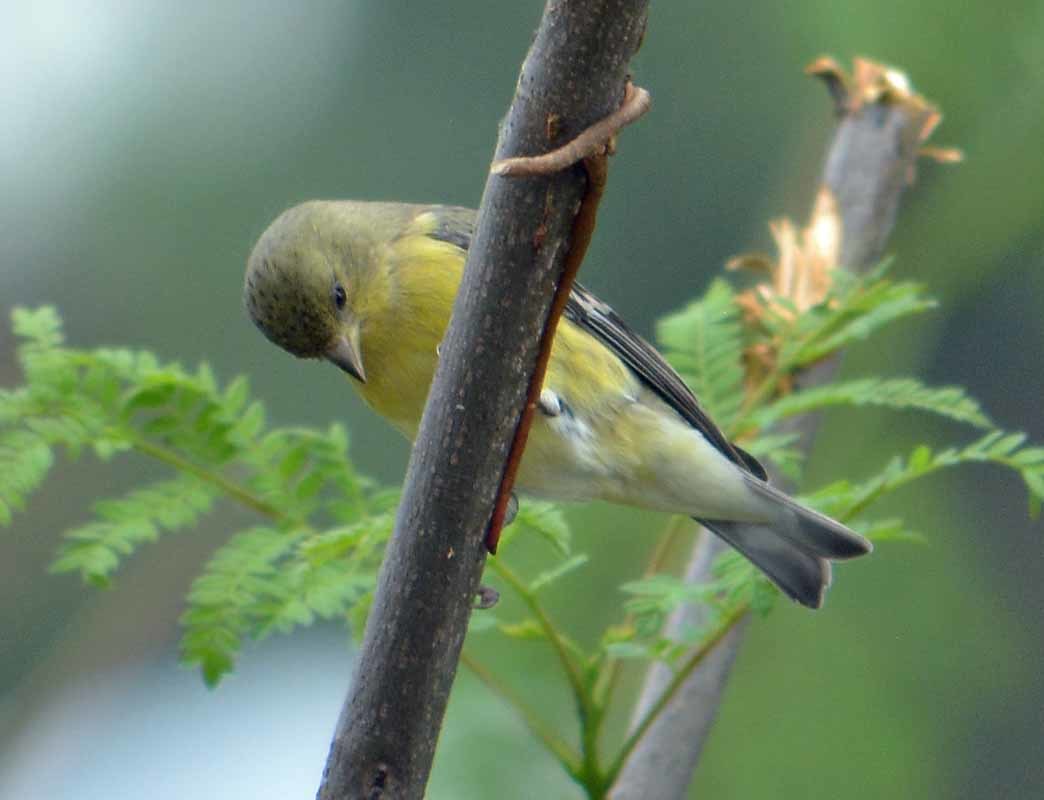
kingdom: Animalia
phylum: Chordata
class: Aves
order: Passeriformes
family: Fringillidae
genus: Spinus
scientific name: Spinus psaltria
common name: Lesser goldfinch
